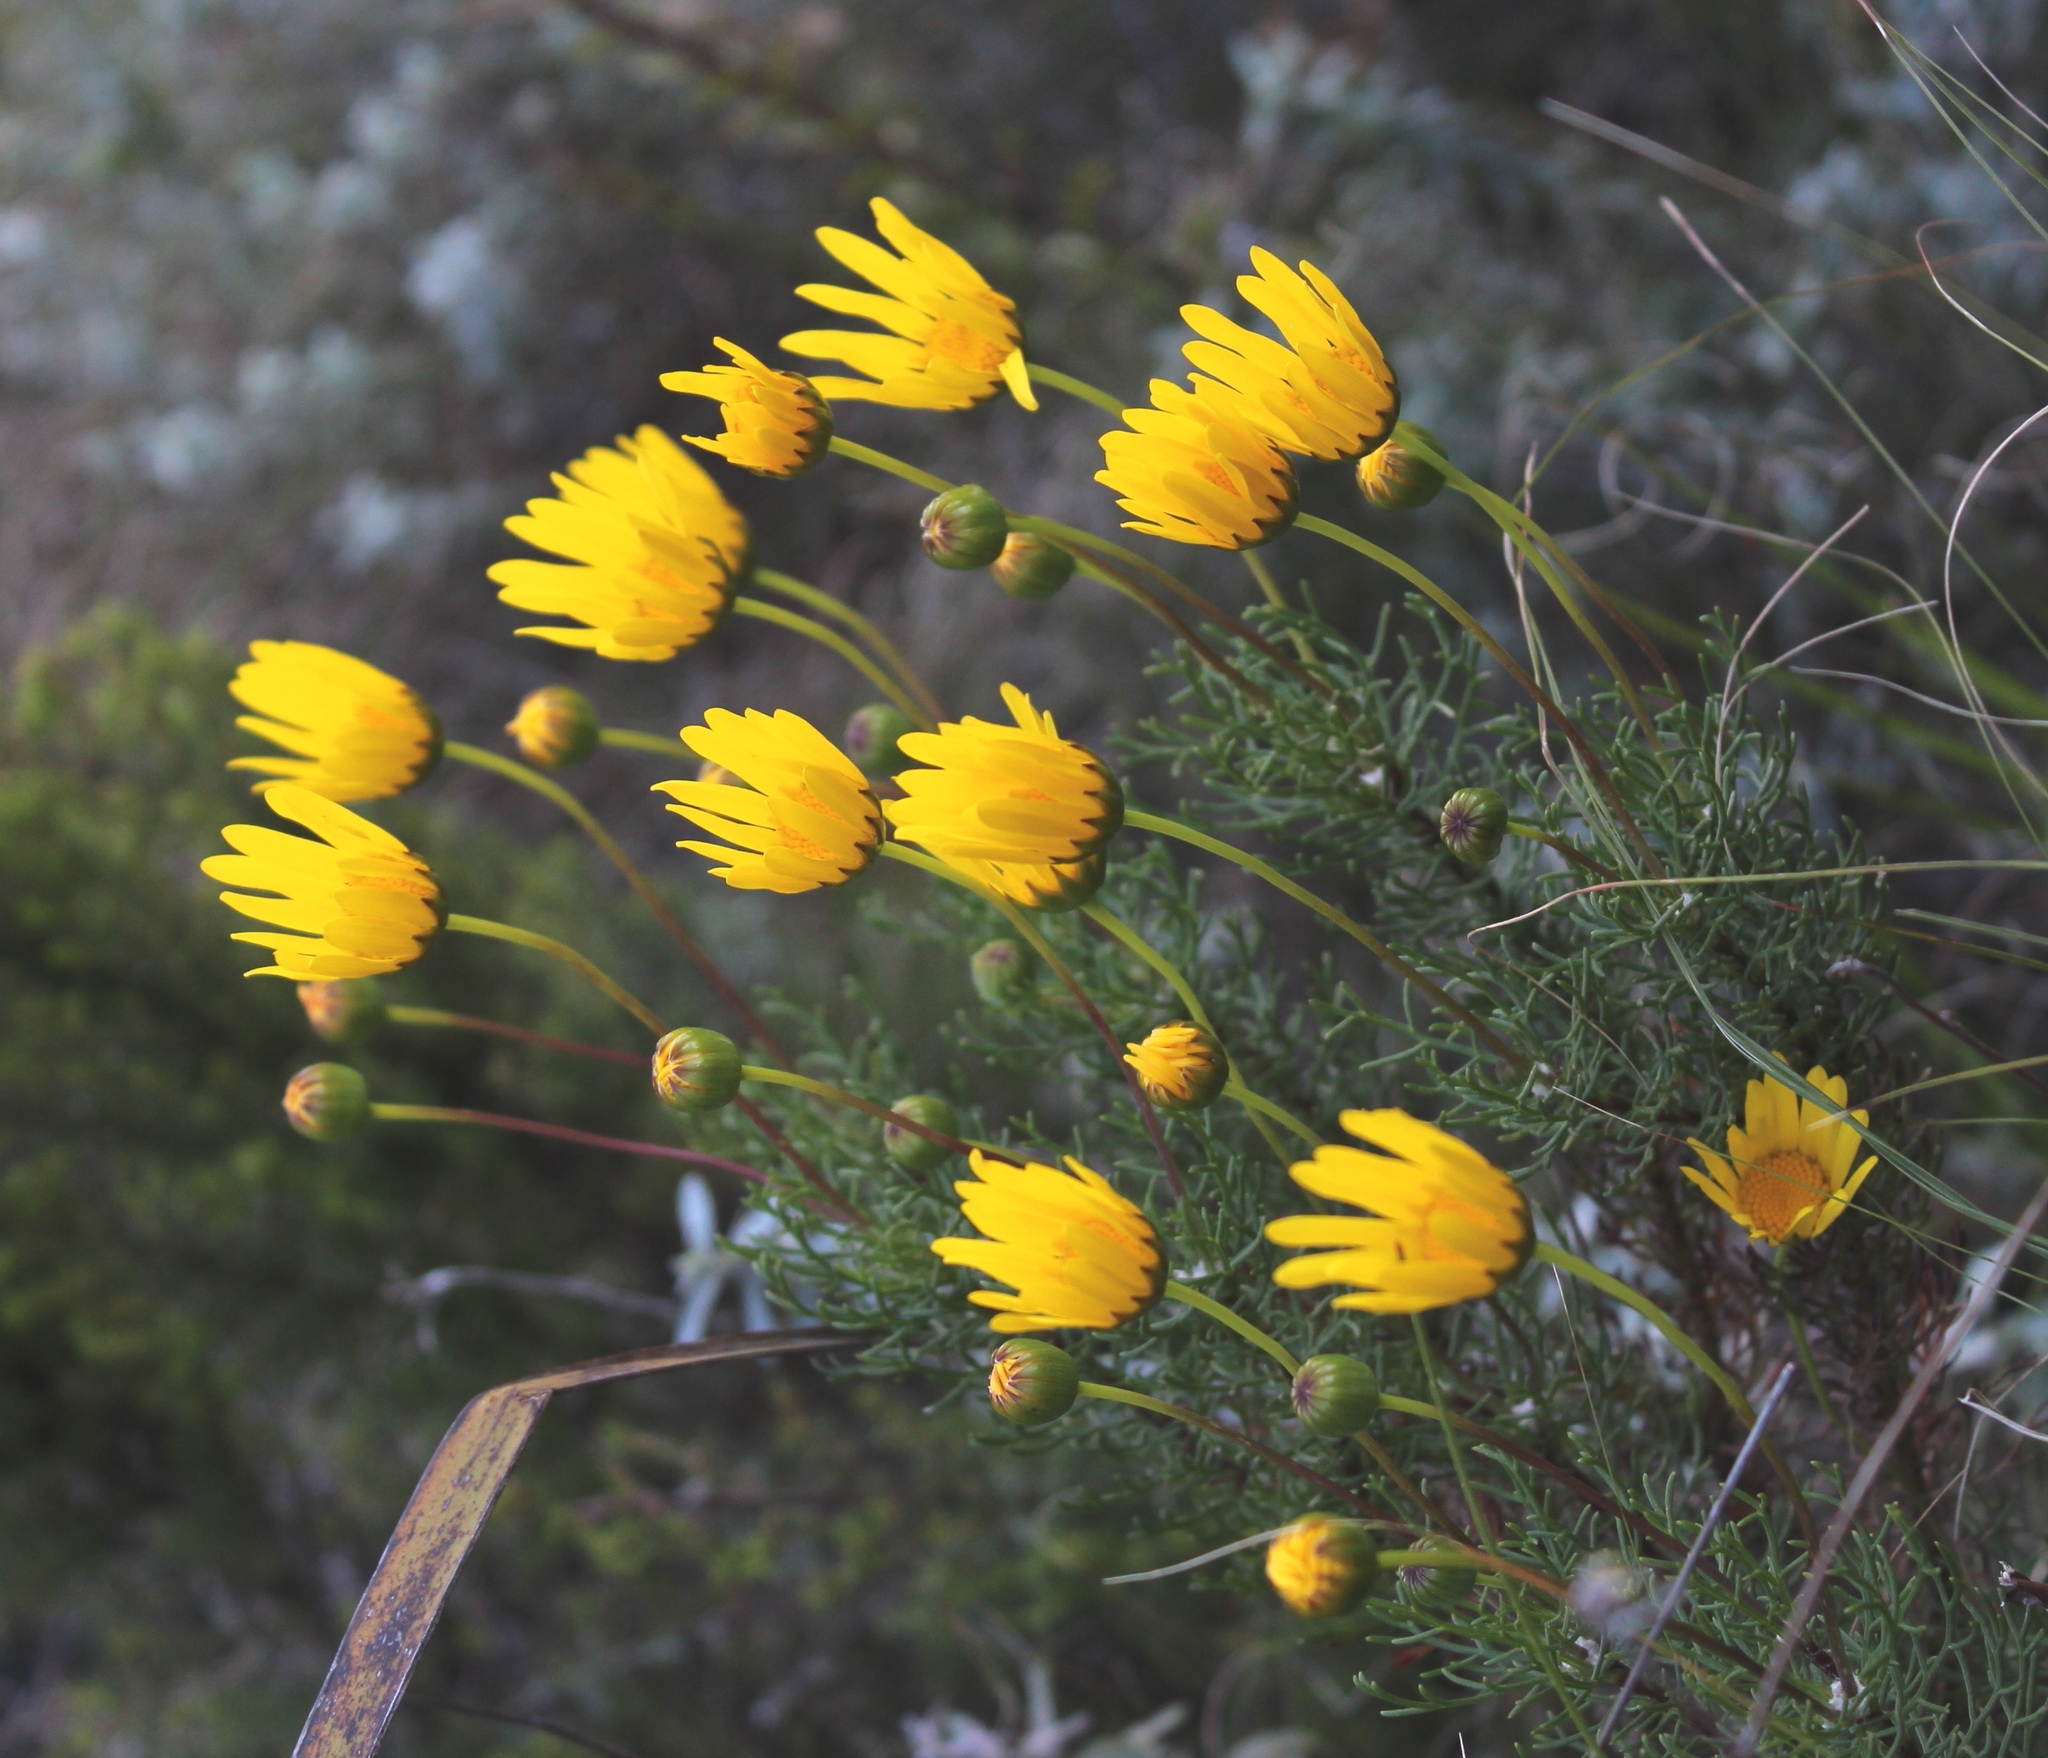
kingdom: Plantae
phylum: Tracheophyta
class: Magnoliopsida
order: Asterales
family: Asteraceae
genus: Euryops
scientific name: Euryops abrotanifolius
